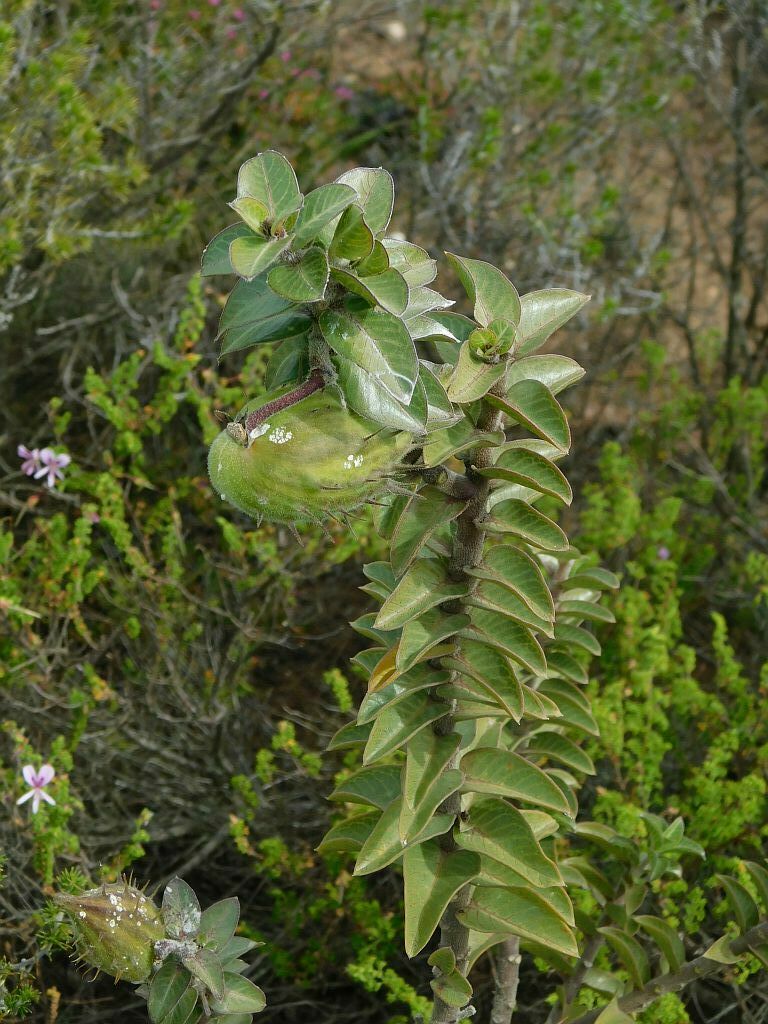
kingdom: Plantae
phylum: Tracheophyta
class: Magnoliopsida
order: Gentianales
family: Apocynaceae
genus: Gomphocarpus
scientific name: Gomphocarpus cancellatus
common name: Wild cotton
